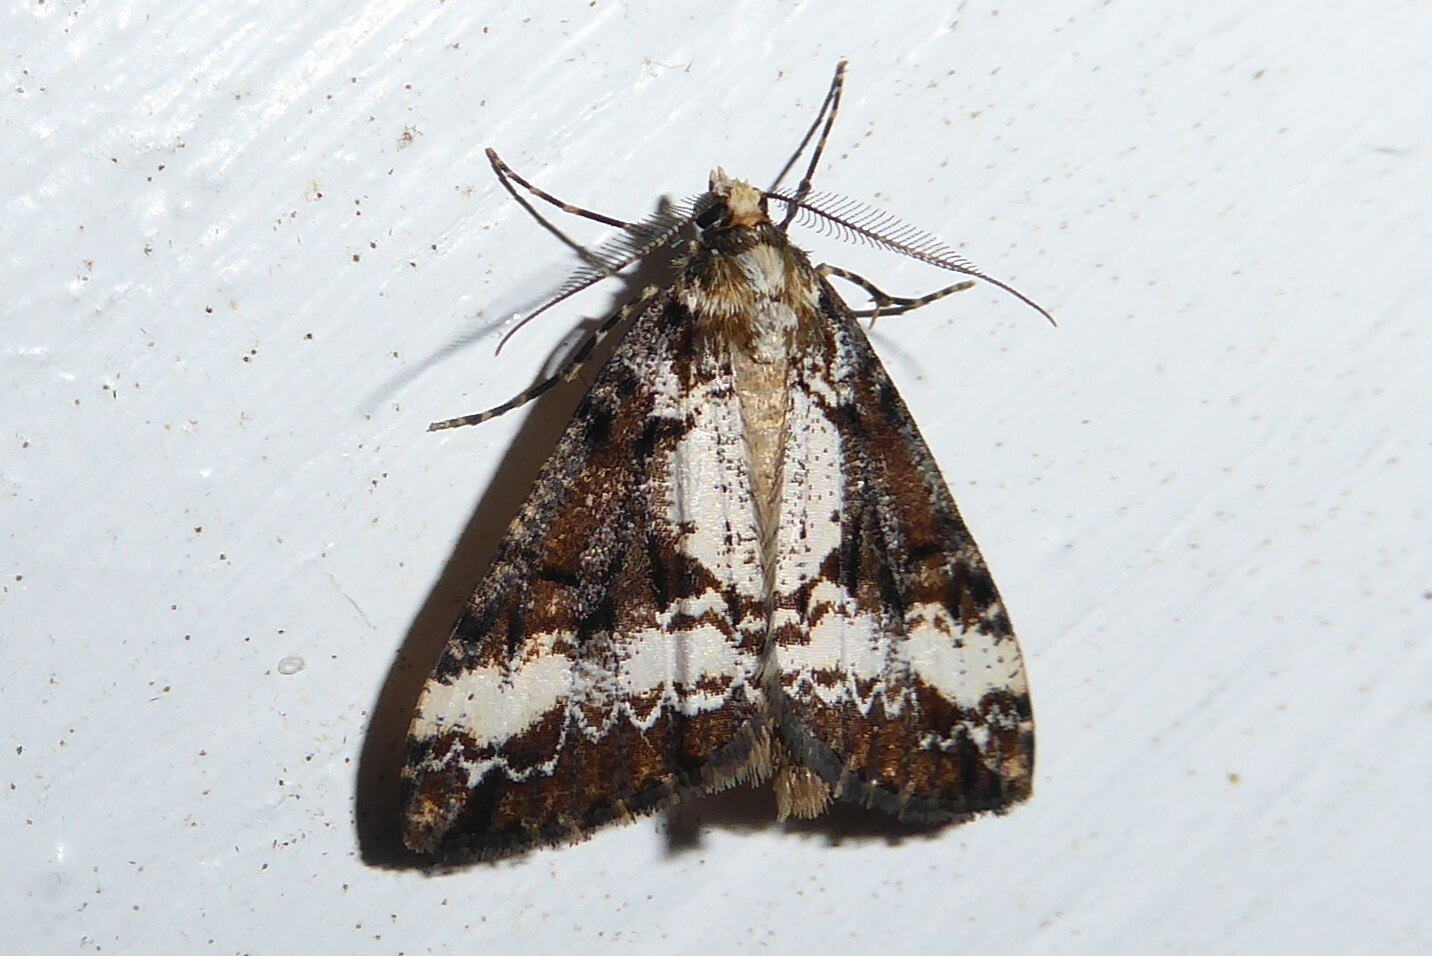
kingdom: Animalia
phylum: Arthropoda
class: Insecta
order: Lepidoptera
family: Geometridae
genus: Pseudocoremia
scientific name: Pseudocoremia leucelaea
